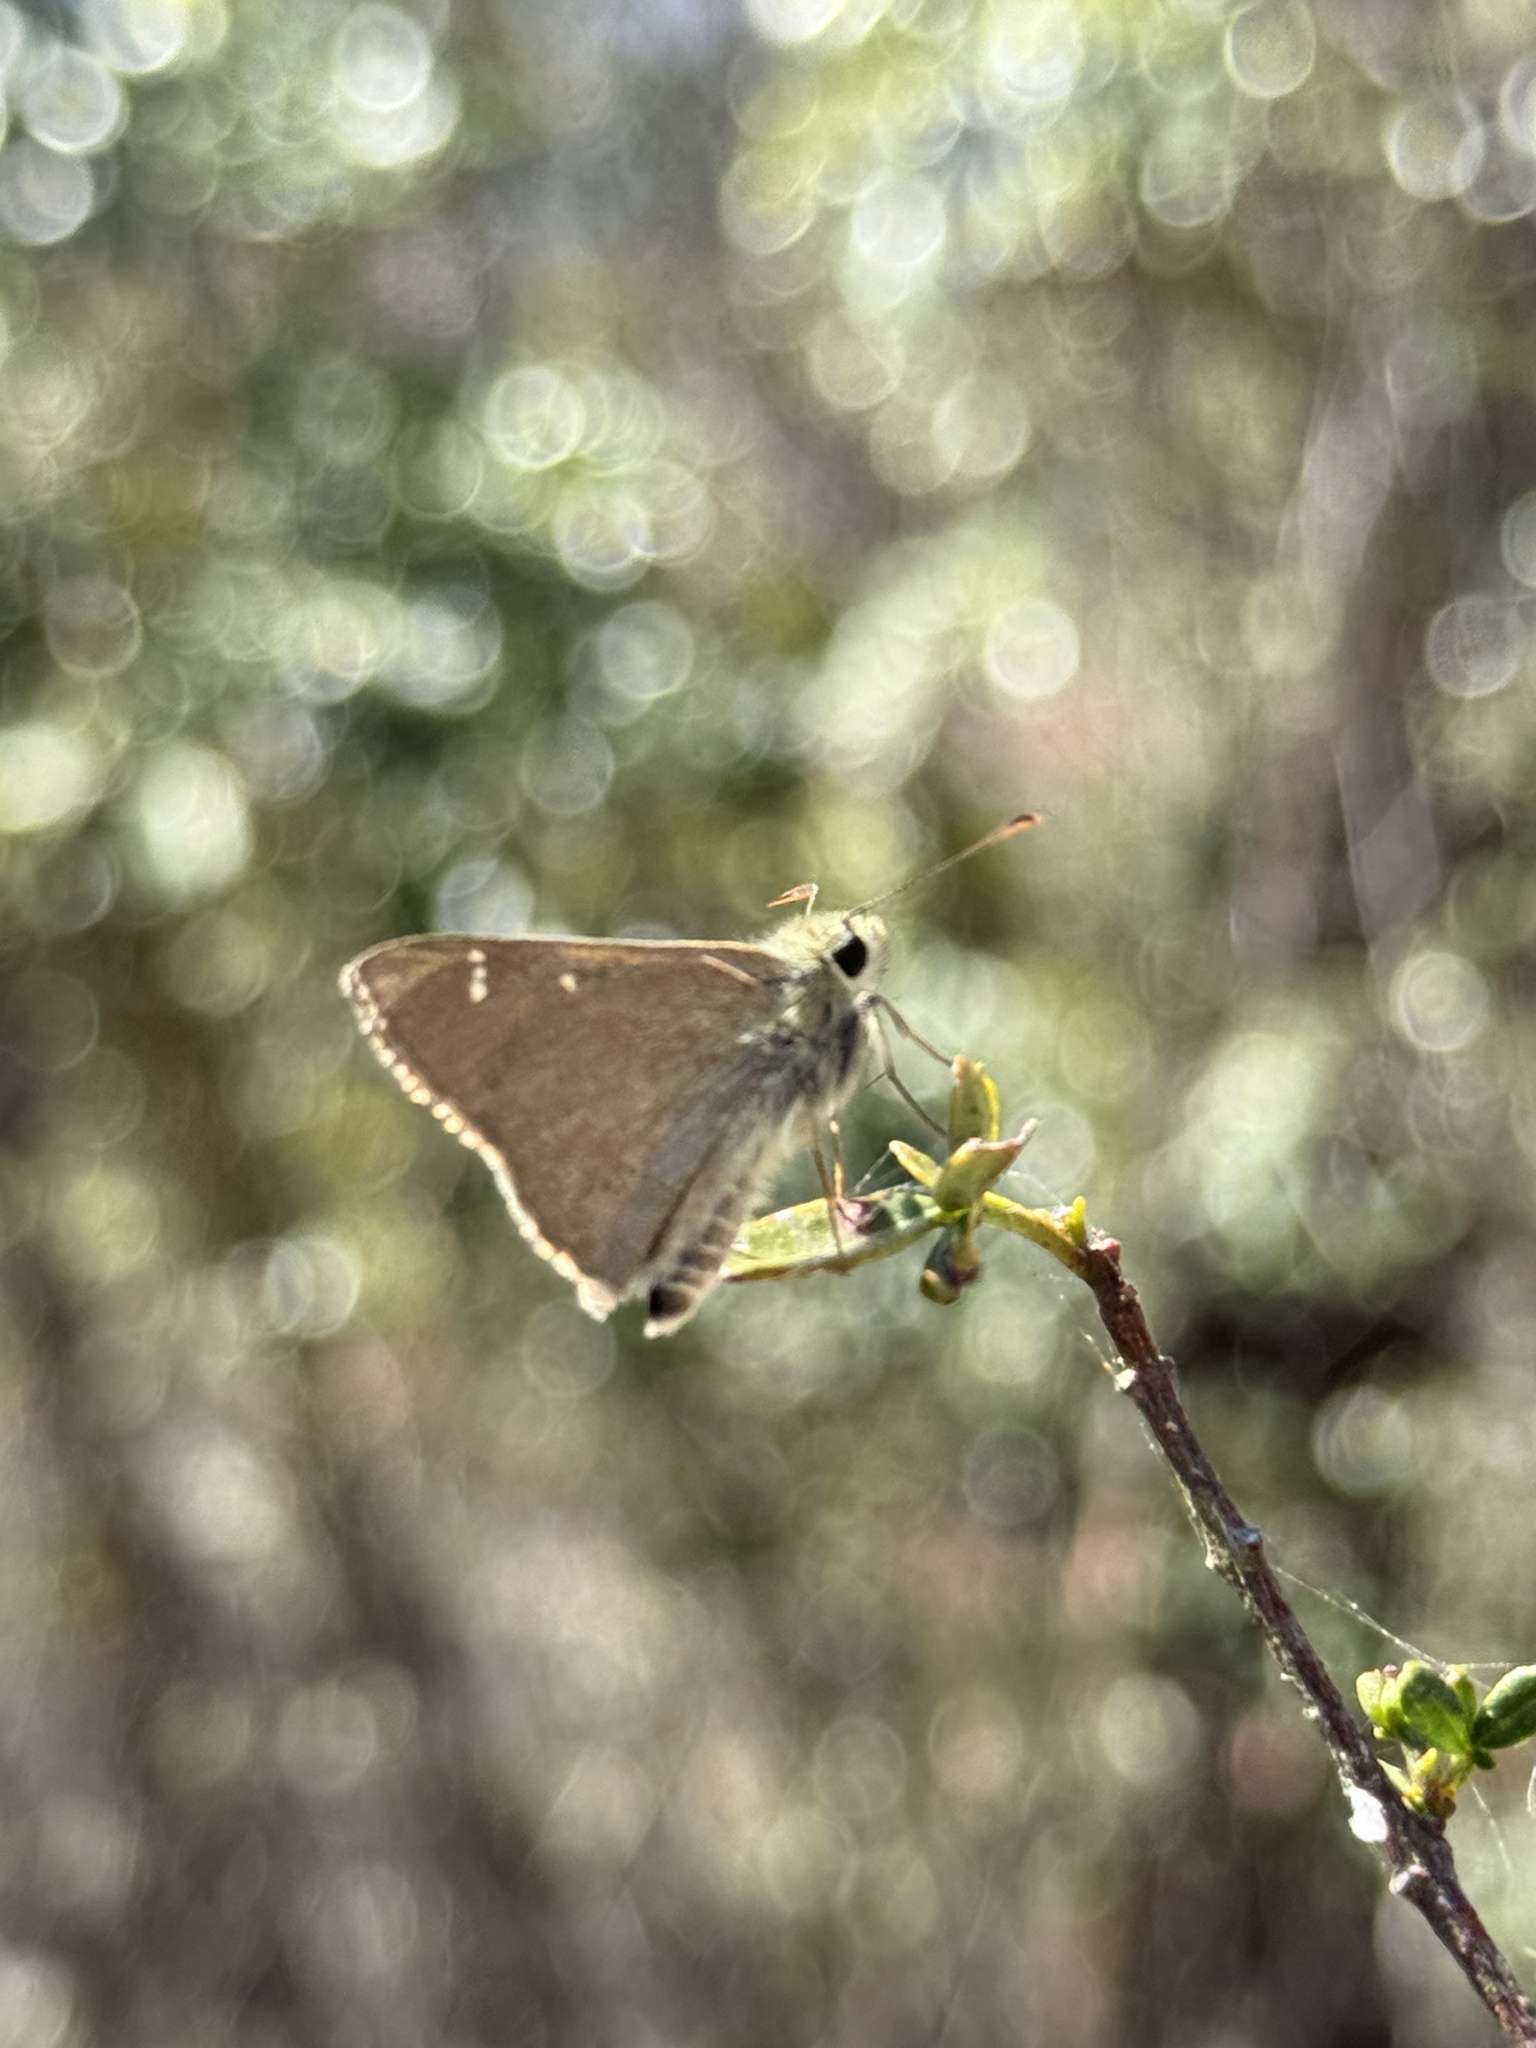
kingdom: Animalia
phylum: Arthropoda
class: Insecta
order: Lepidoptera
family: Hesperiidae
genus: Toxidia
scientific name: Toxidia
